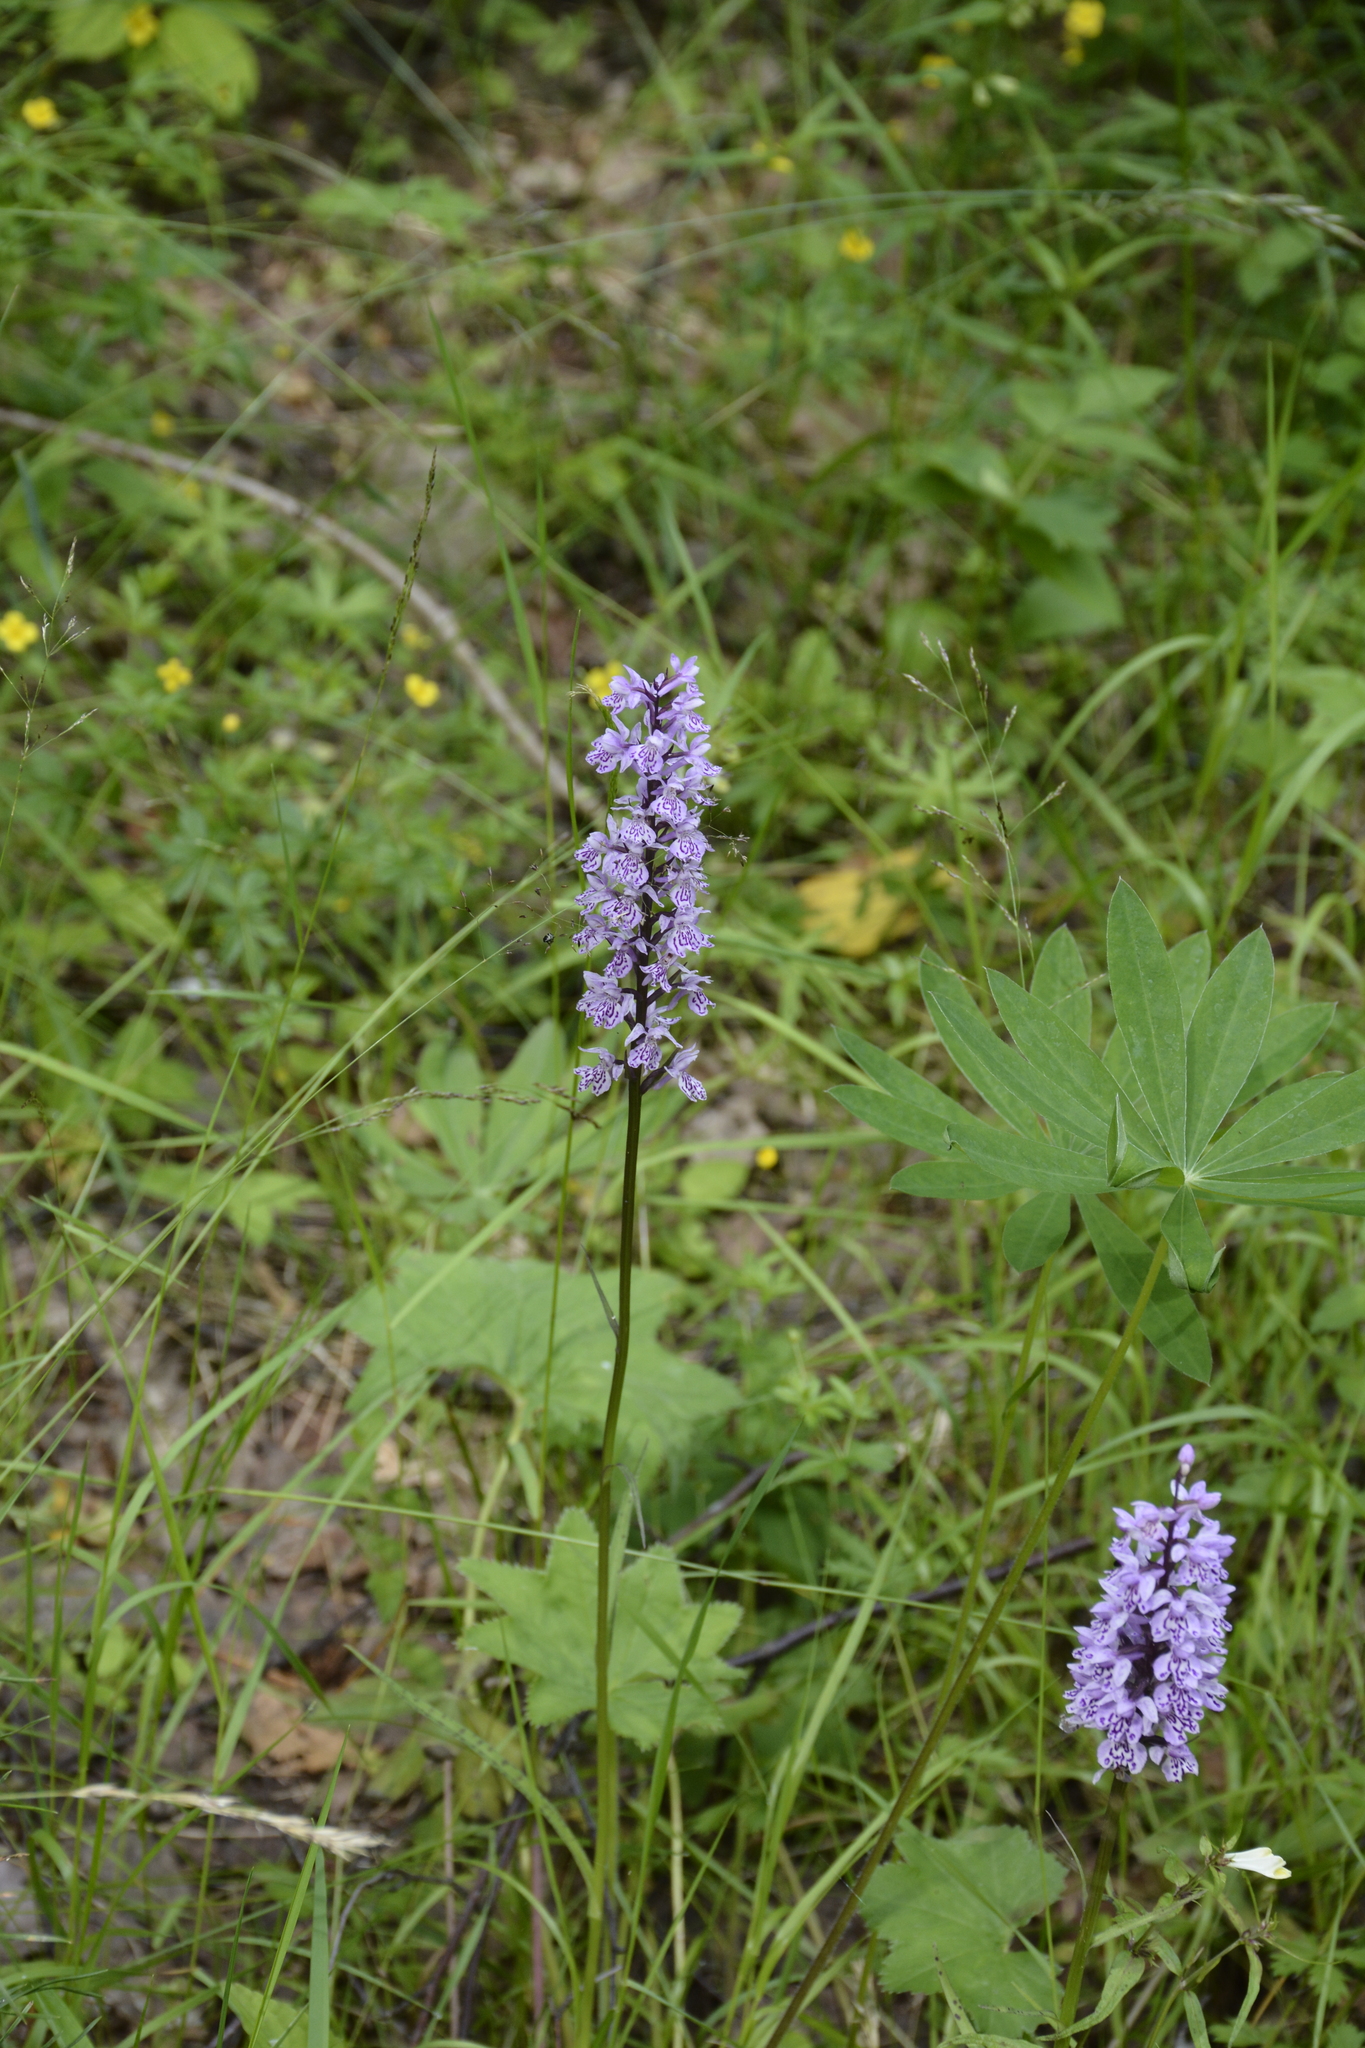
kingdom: Plantae
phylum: Tracheophyta
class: Liliopsida
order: Asparagales
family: Orchidaceae
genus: Dactylorhiza
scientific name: Dactylorhiza maculata
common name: Heath spotted-orchid
